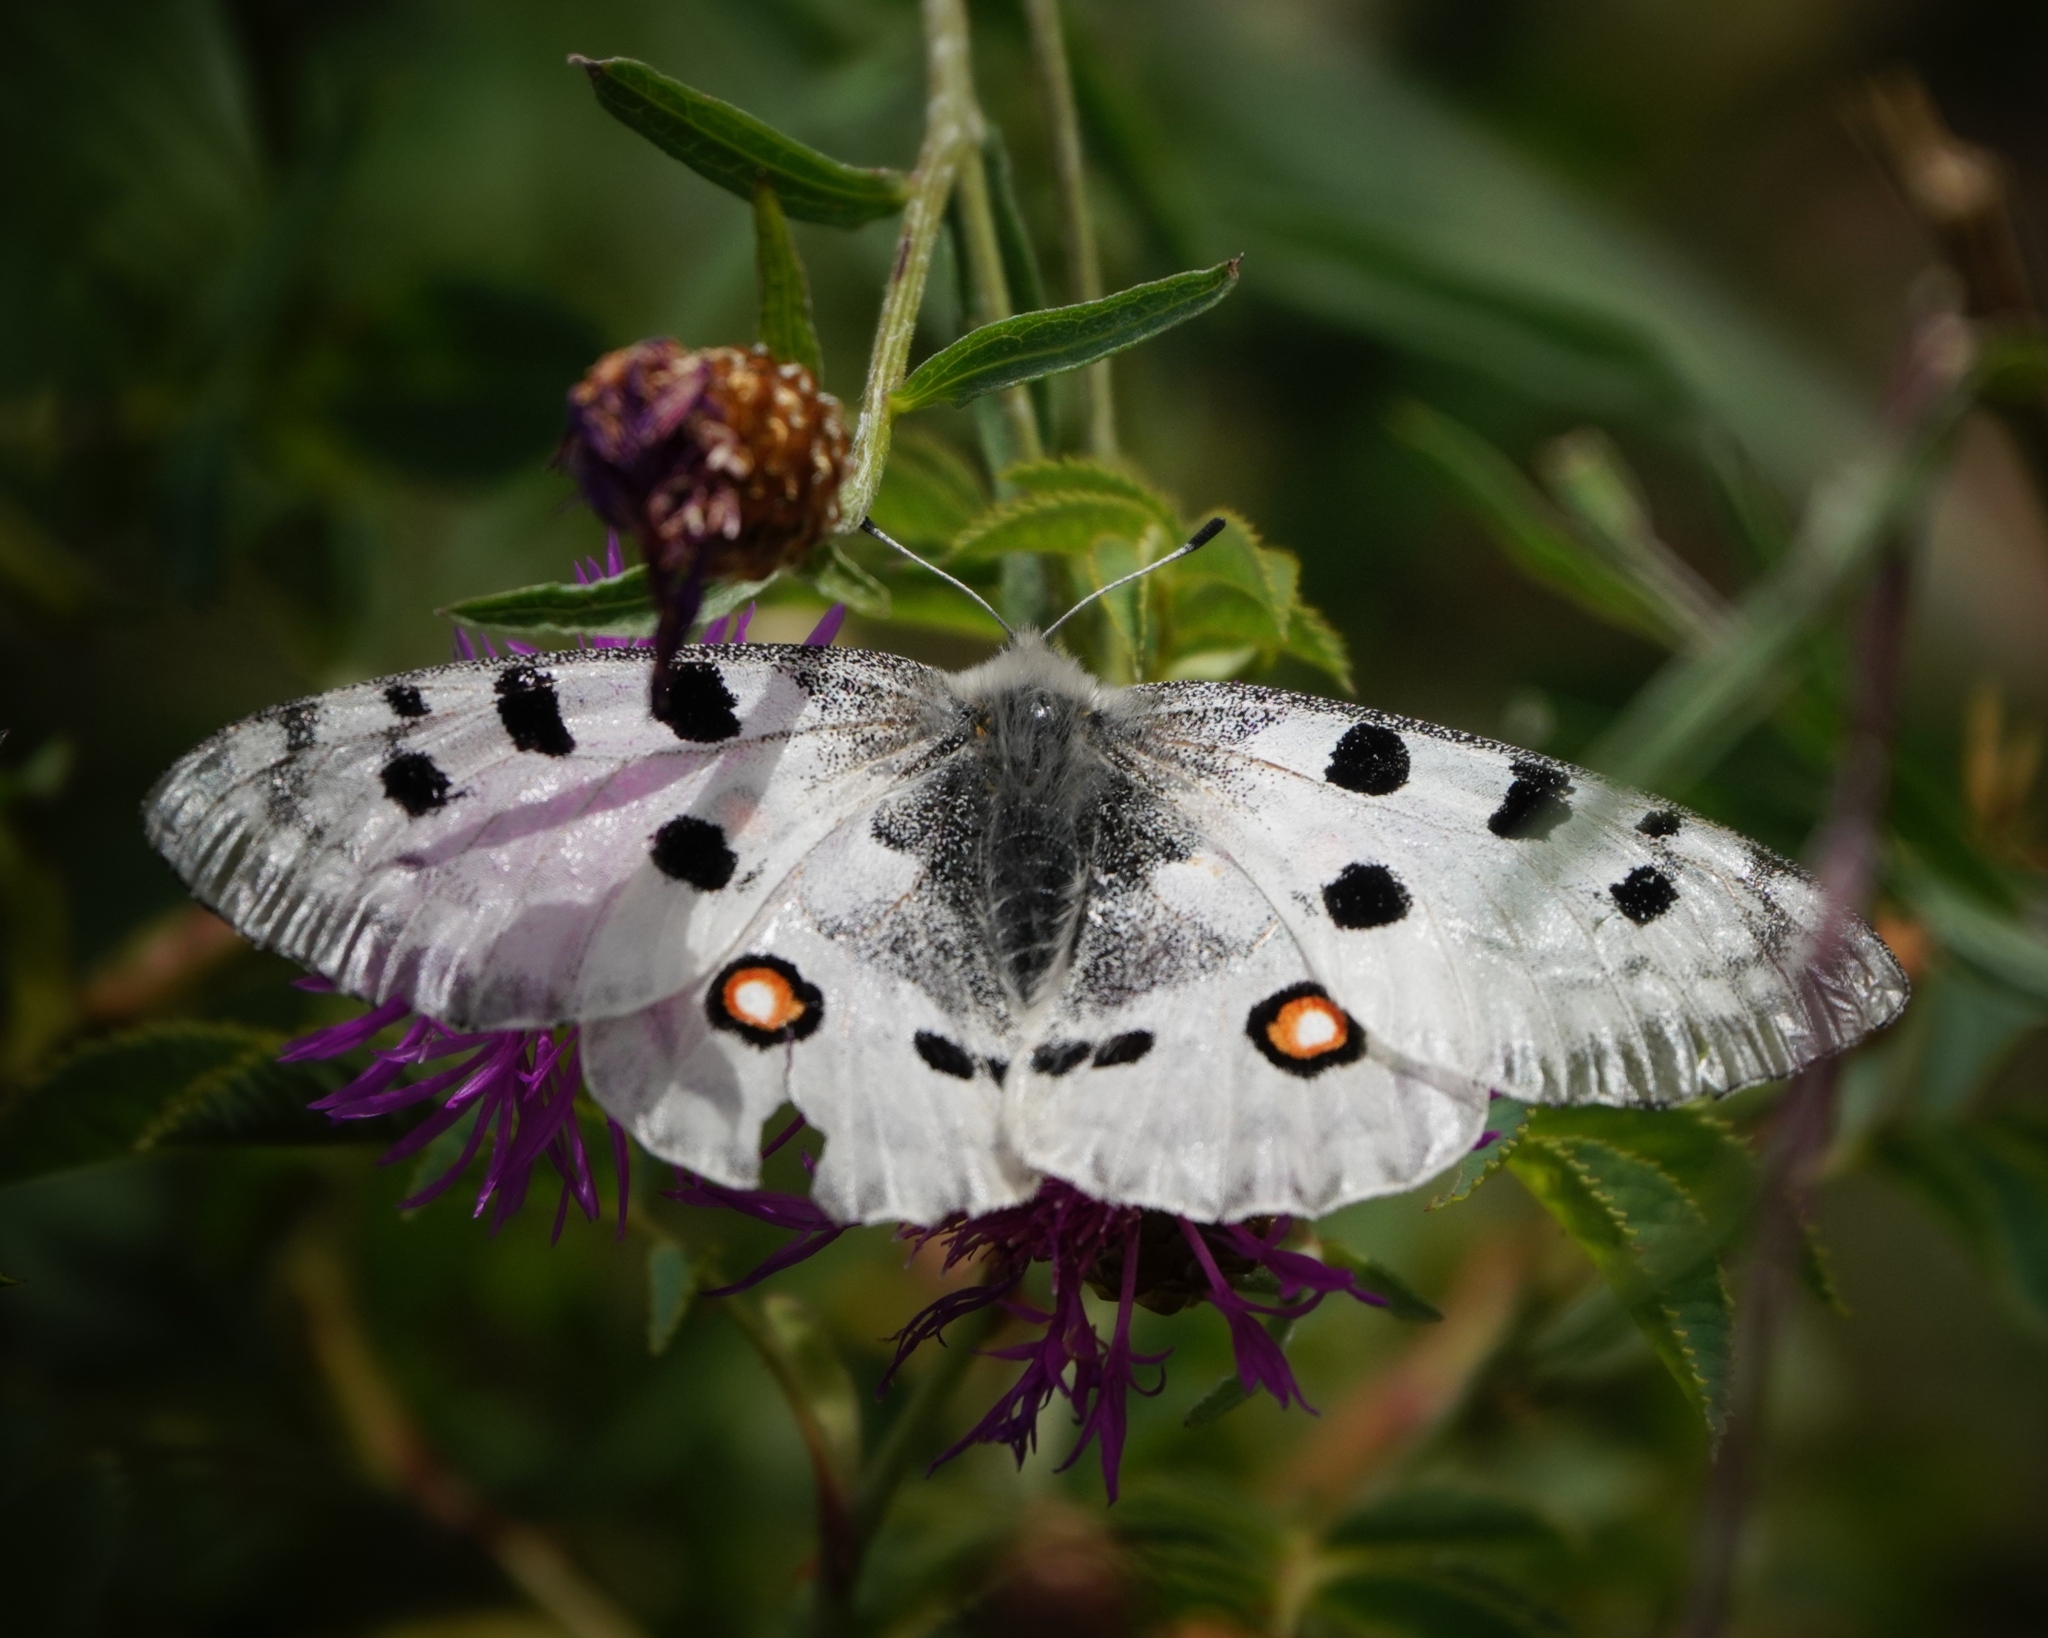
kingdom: Animalia
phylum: Arthropoda
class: Insecta
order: Lepidoptera
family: Papilionidae
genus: Parnassius
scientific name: Parnassius apollo
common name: Apollo
